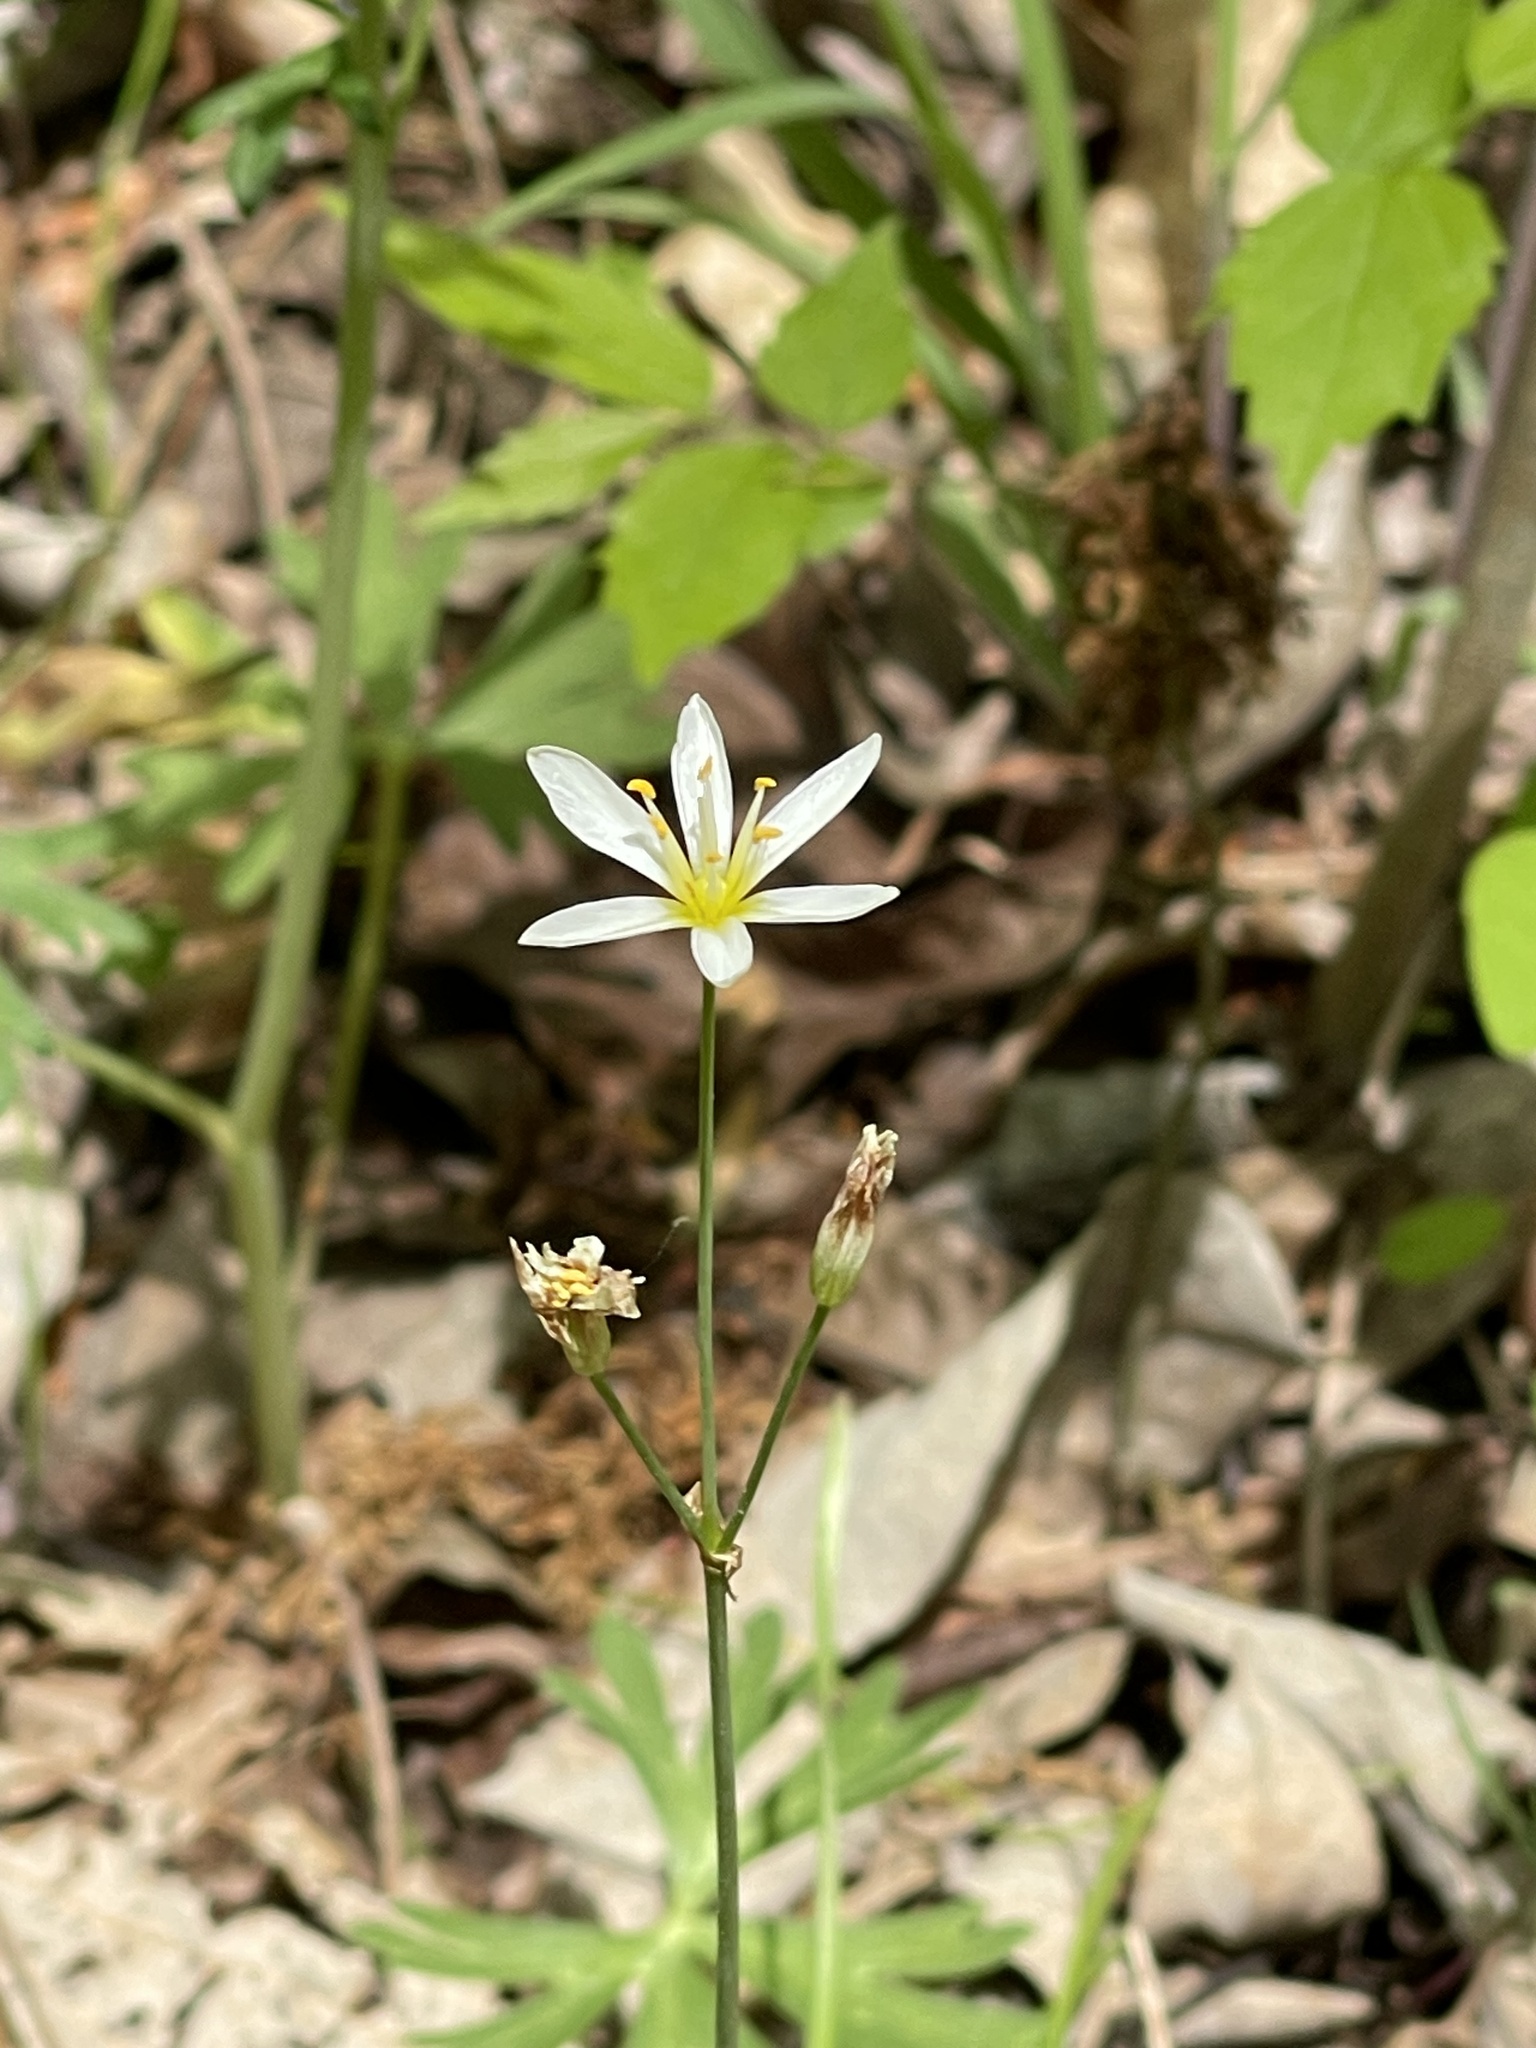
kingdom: Plantae
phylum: Tracheophyta
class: Liliopsida
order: Asparagales
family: Amaryllidaceae
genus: Nothoscordum
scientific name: Nothoscordum bivalve
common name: Crow-poison
